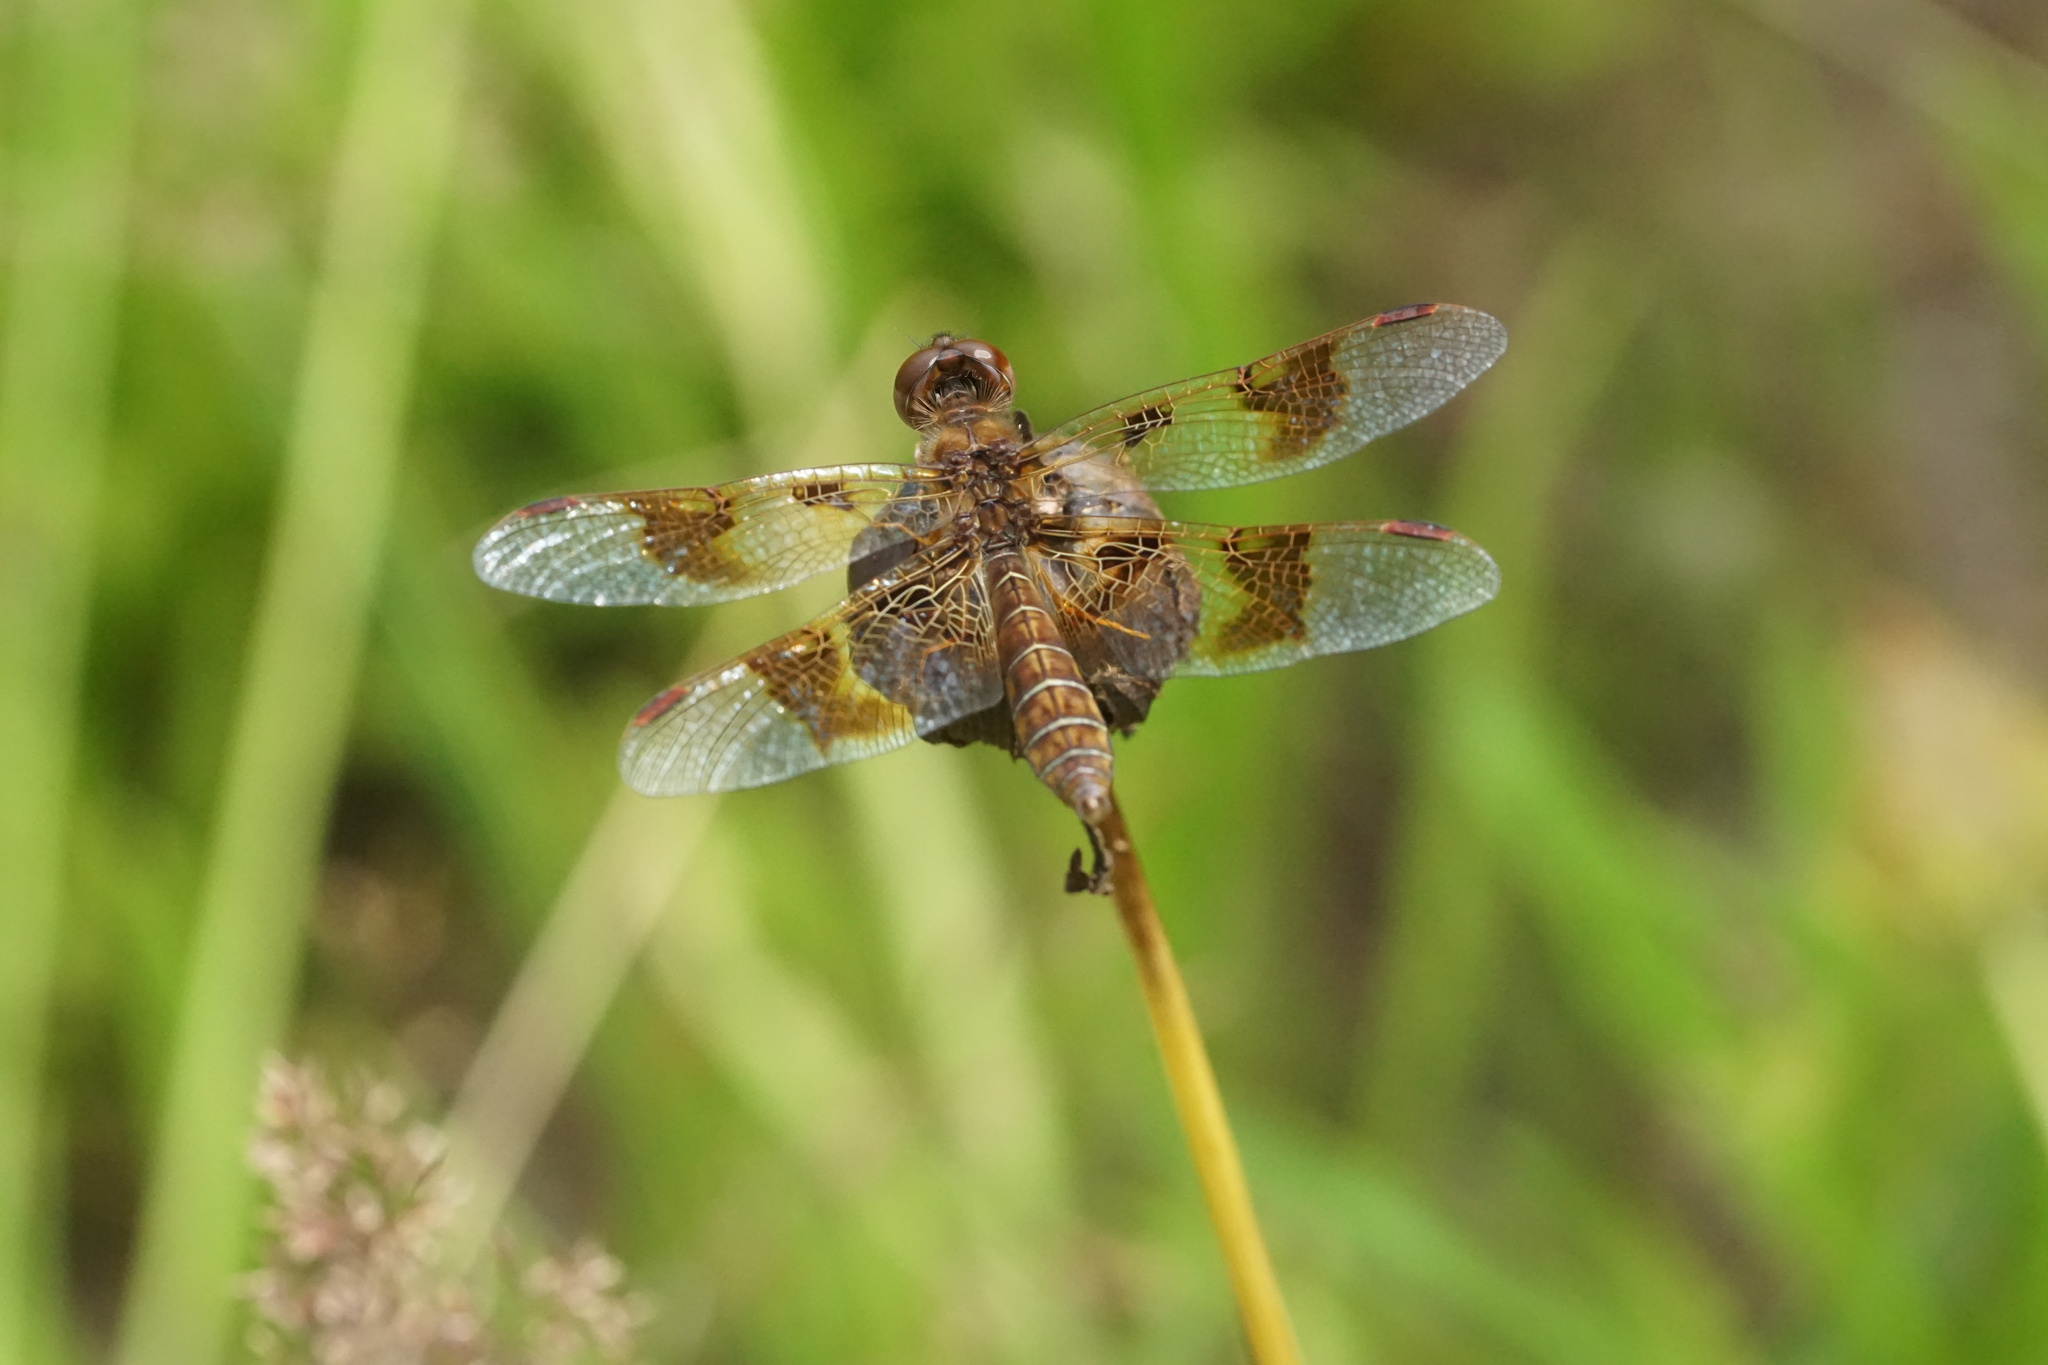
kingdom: Animalia
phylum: Arthropoda
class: Insecta
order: Odonata
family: Libellulidae
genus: Perithemis
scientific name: Perithemis tenera
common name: Eastern amberwing
